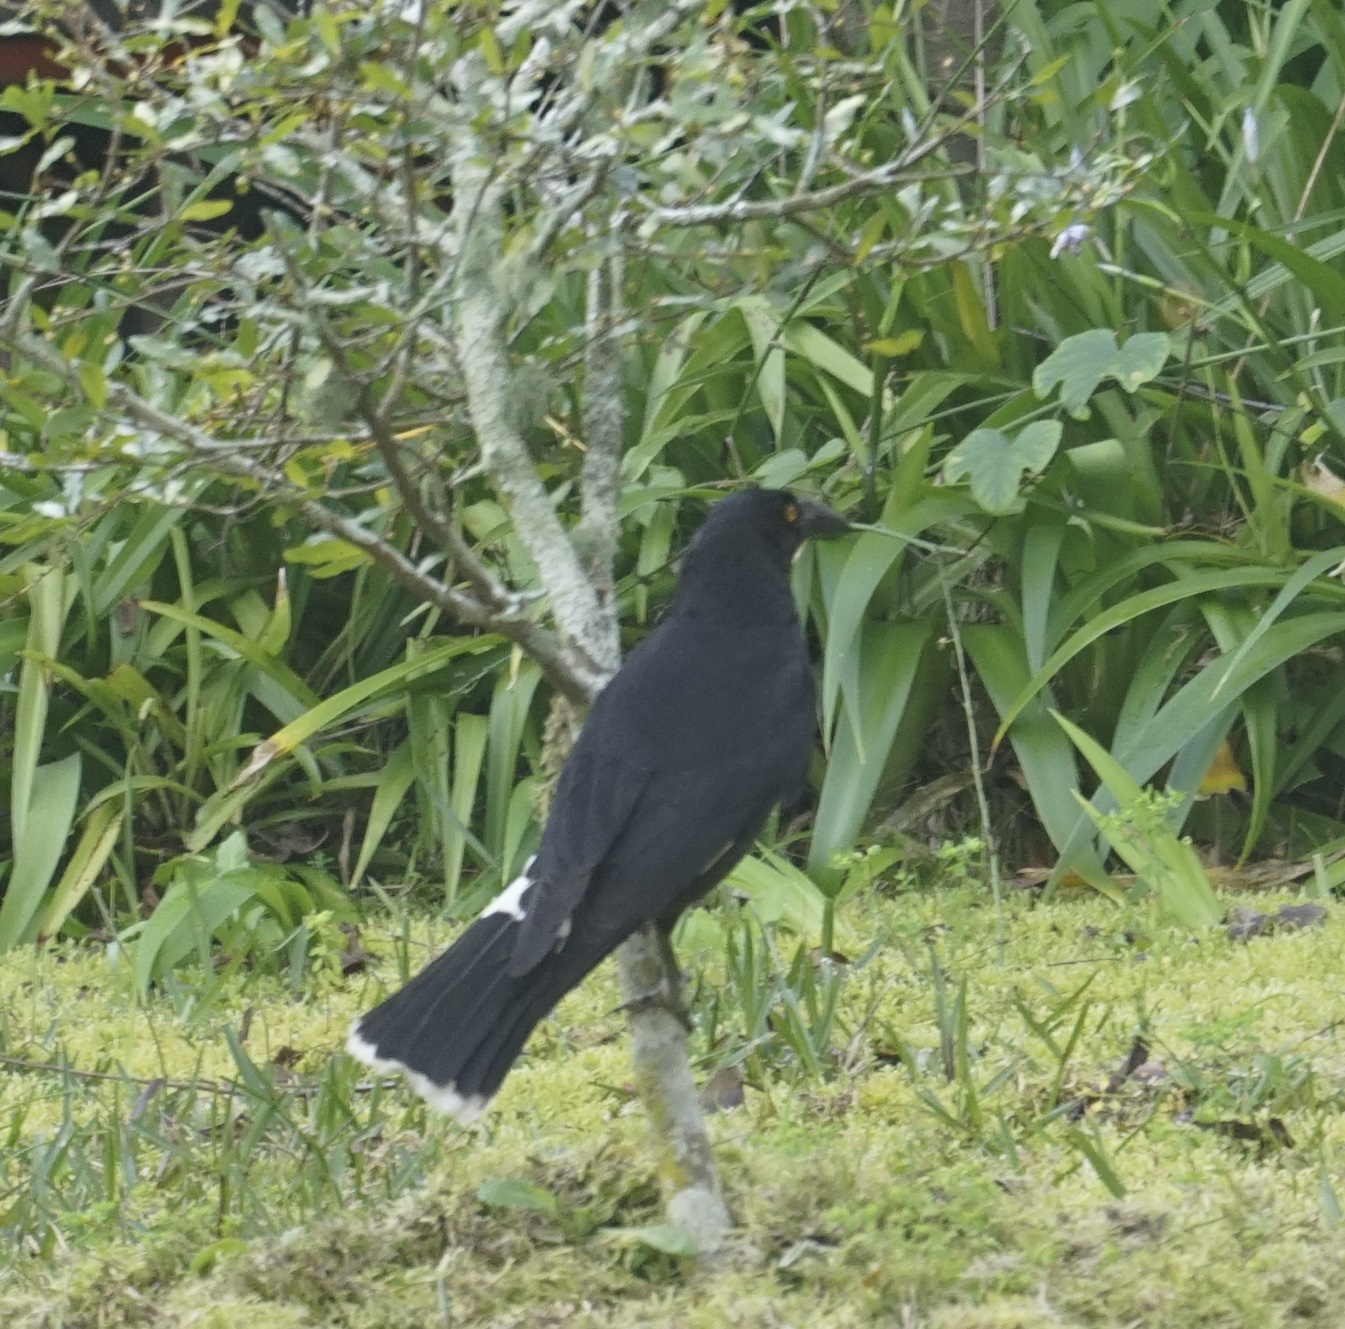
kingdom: Animalia
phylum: Chordata
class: Aves
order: Passeriformes
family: Cracticidae
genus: Strepera
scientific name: Strepera graculina
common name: Pied currawong
